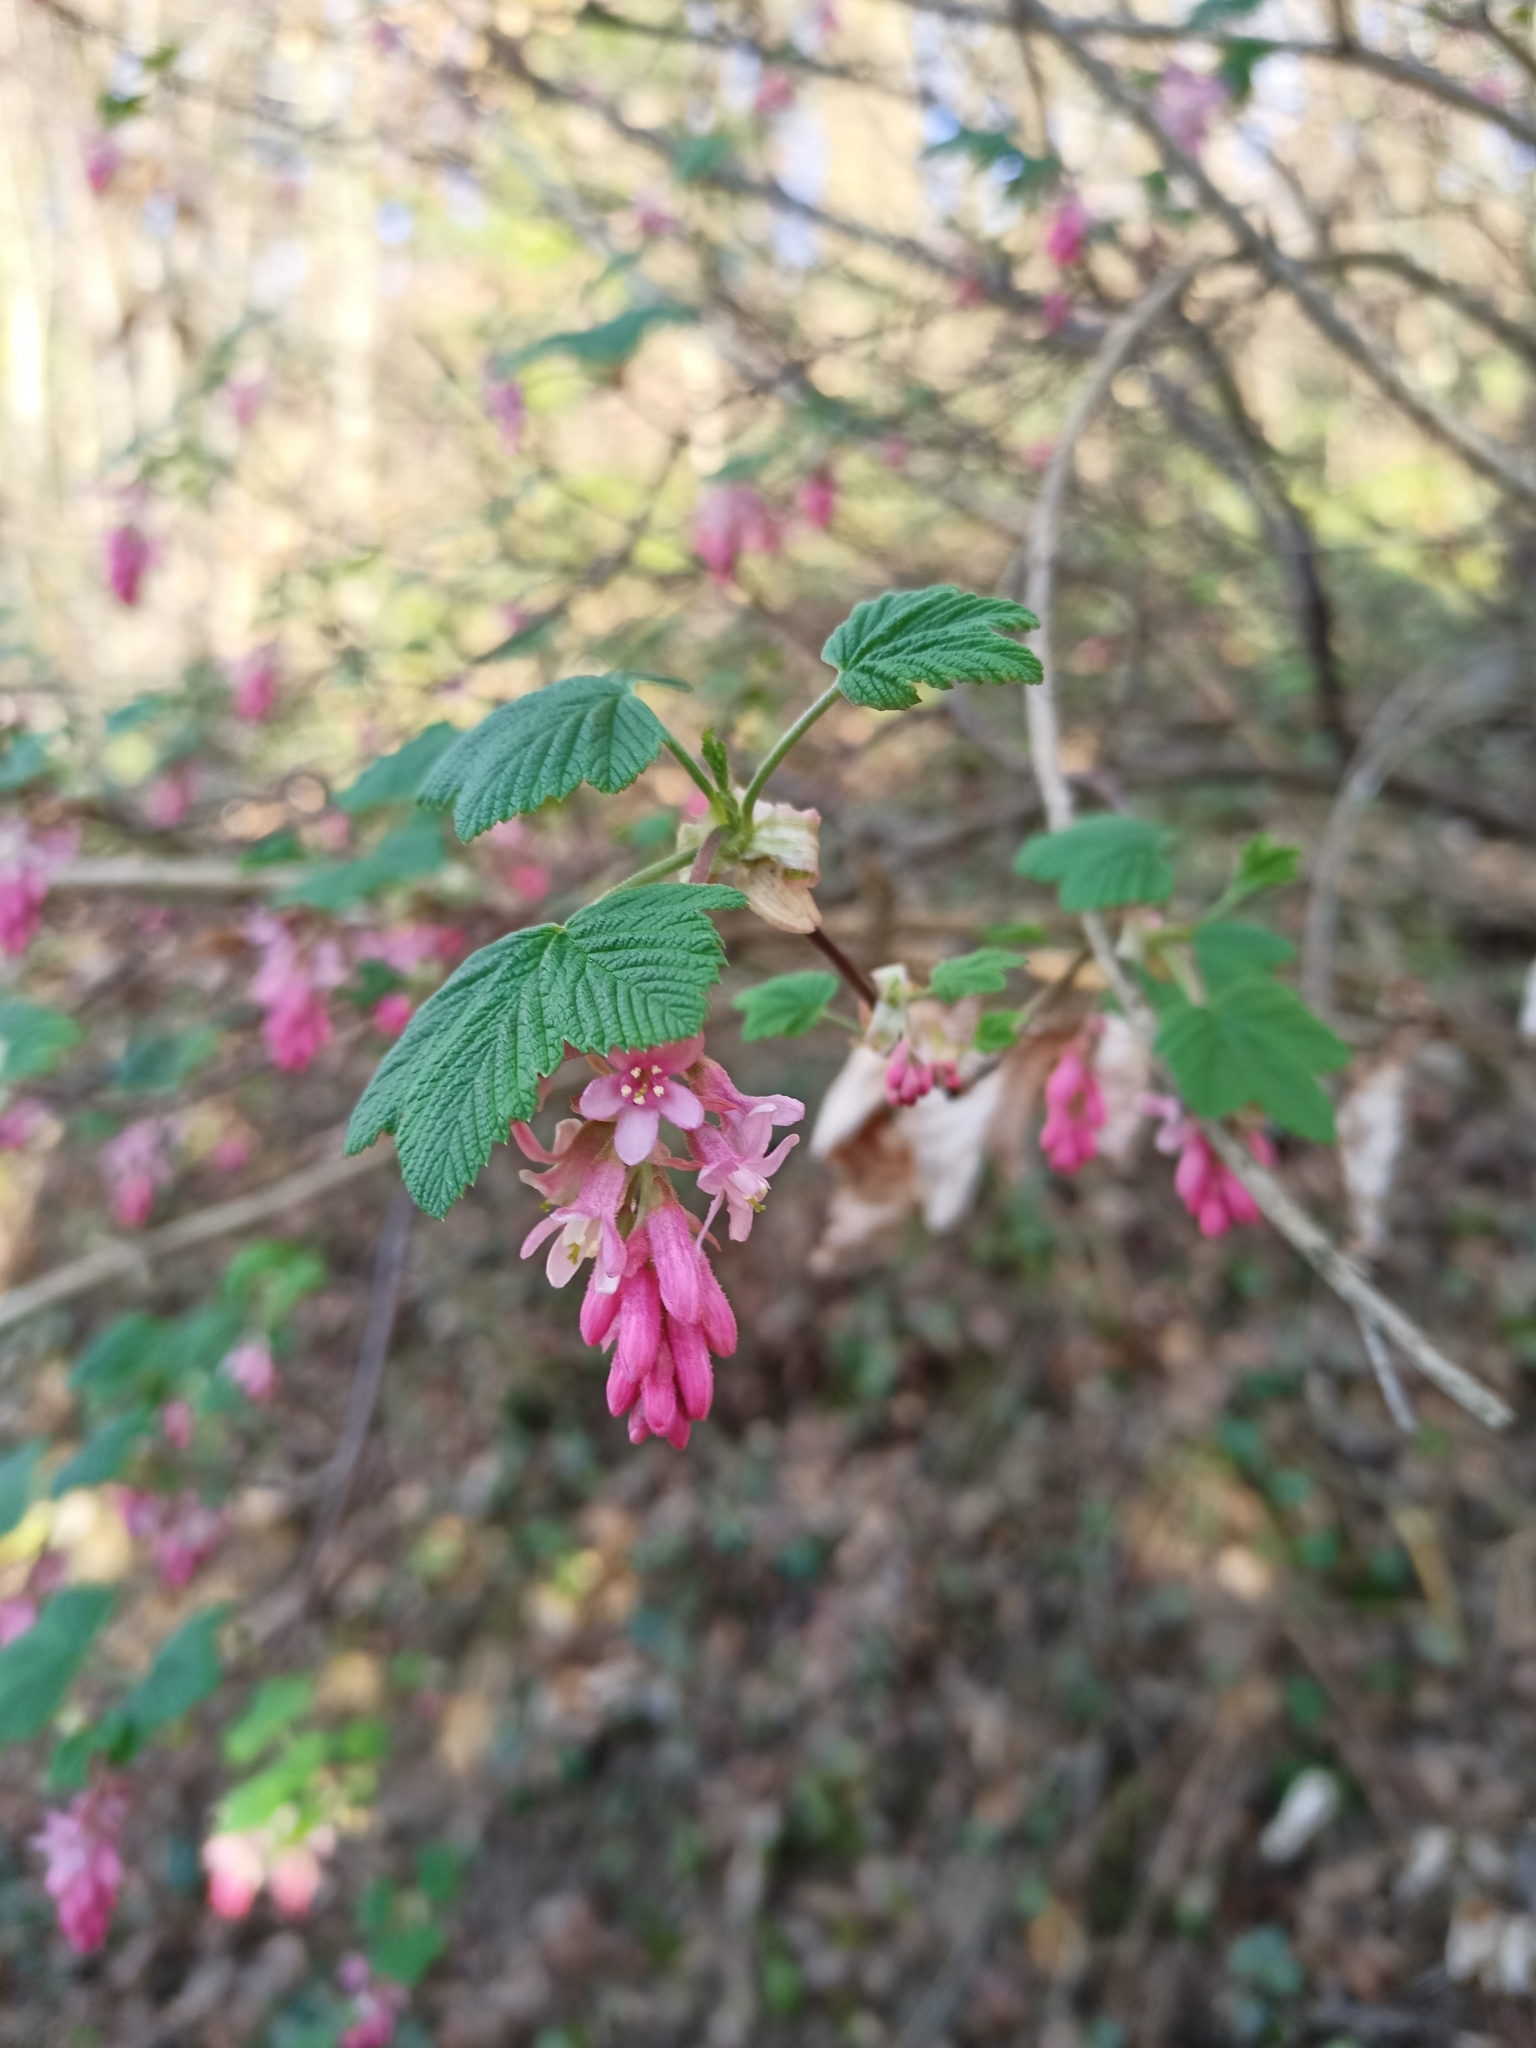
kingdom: Plantae
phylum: Tracheophyta
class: Magnoliopsida
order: Saxifragales
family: Grossulariaceae
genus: Ribes
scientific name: Ribes sanguineum
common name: Flowering currant
